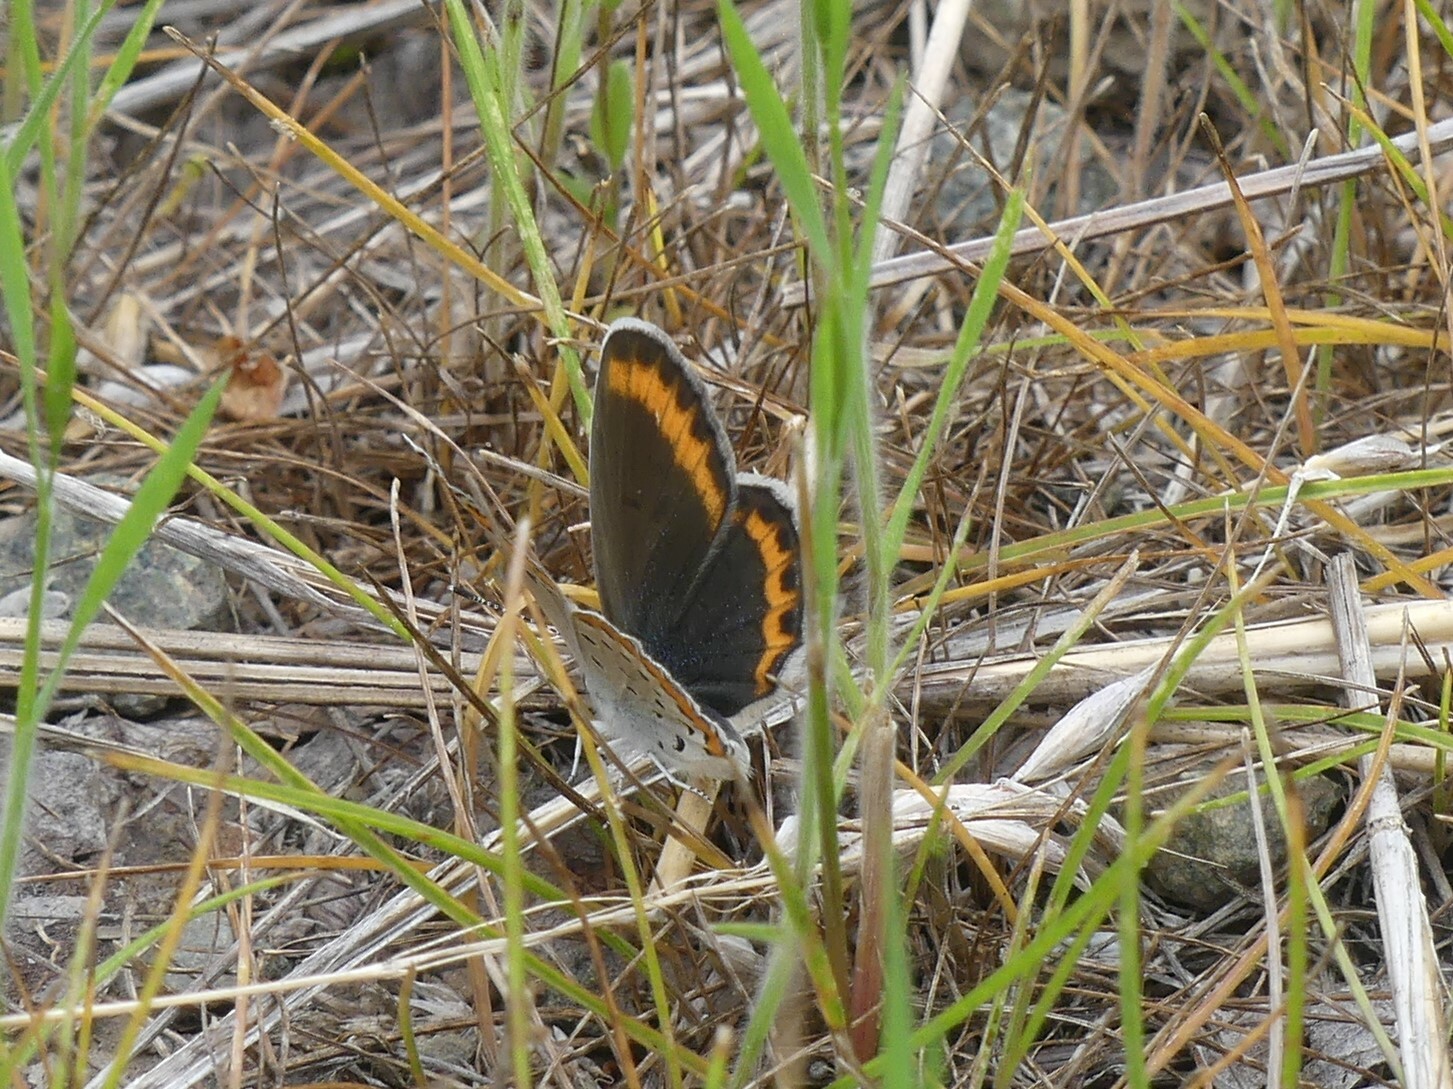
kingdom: Animalia
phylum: Arthropoda
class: Insecta
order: Lepidoptera
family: Lycaenidae
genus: Lycaeides
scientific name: Lycaeides melissa
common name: Melissa blue
